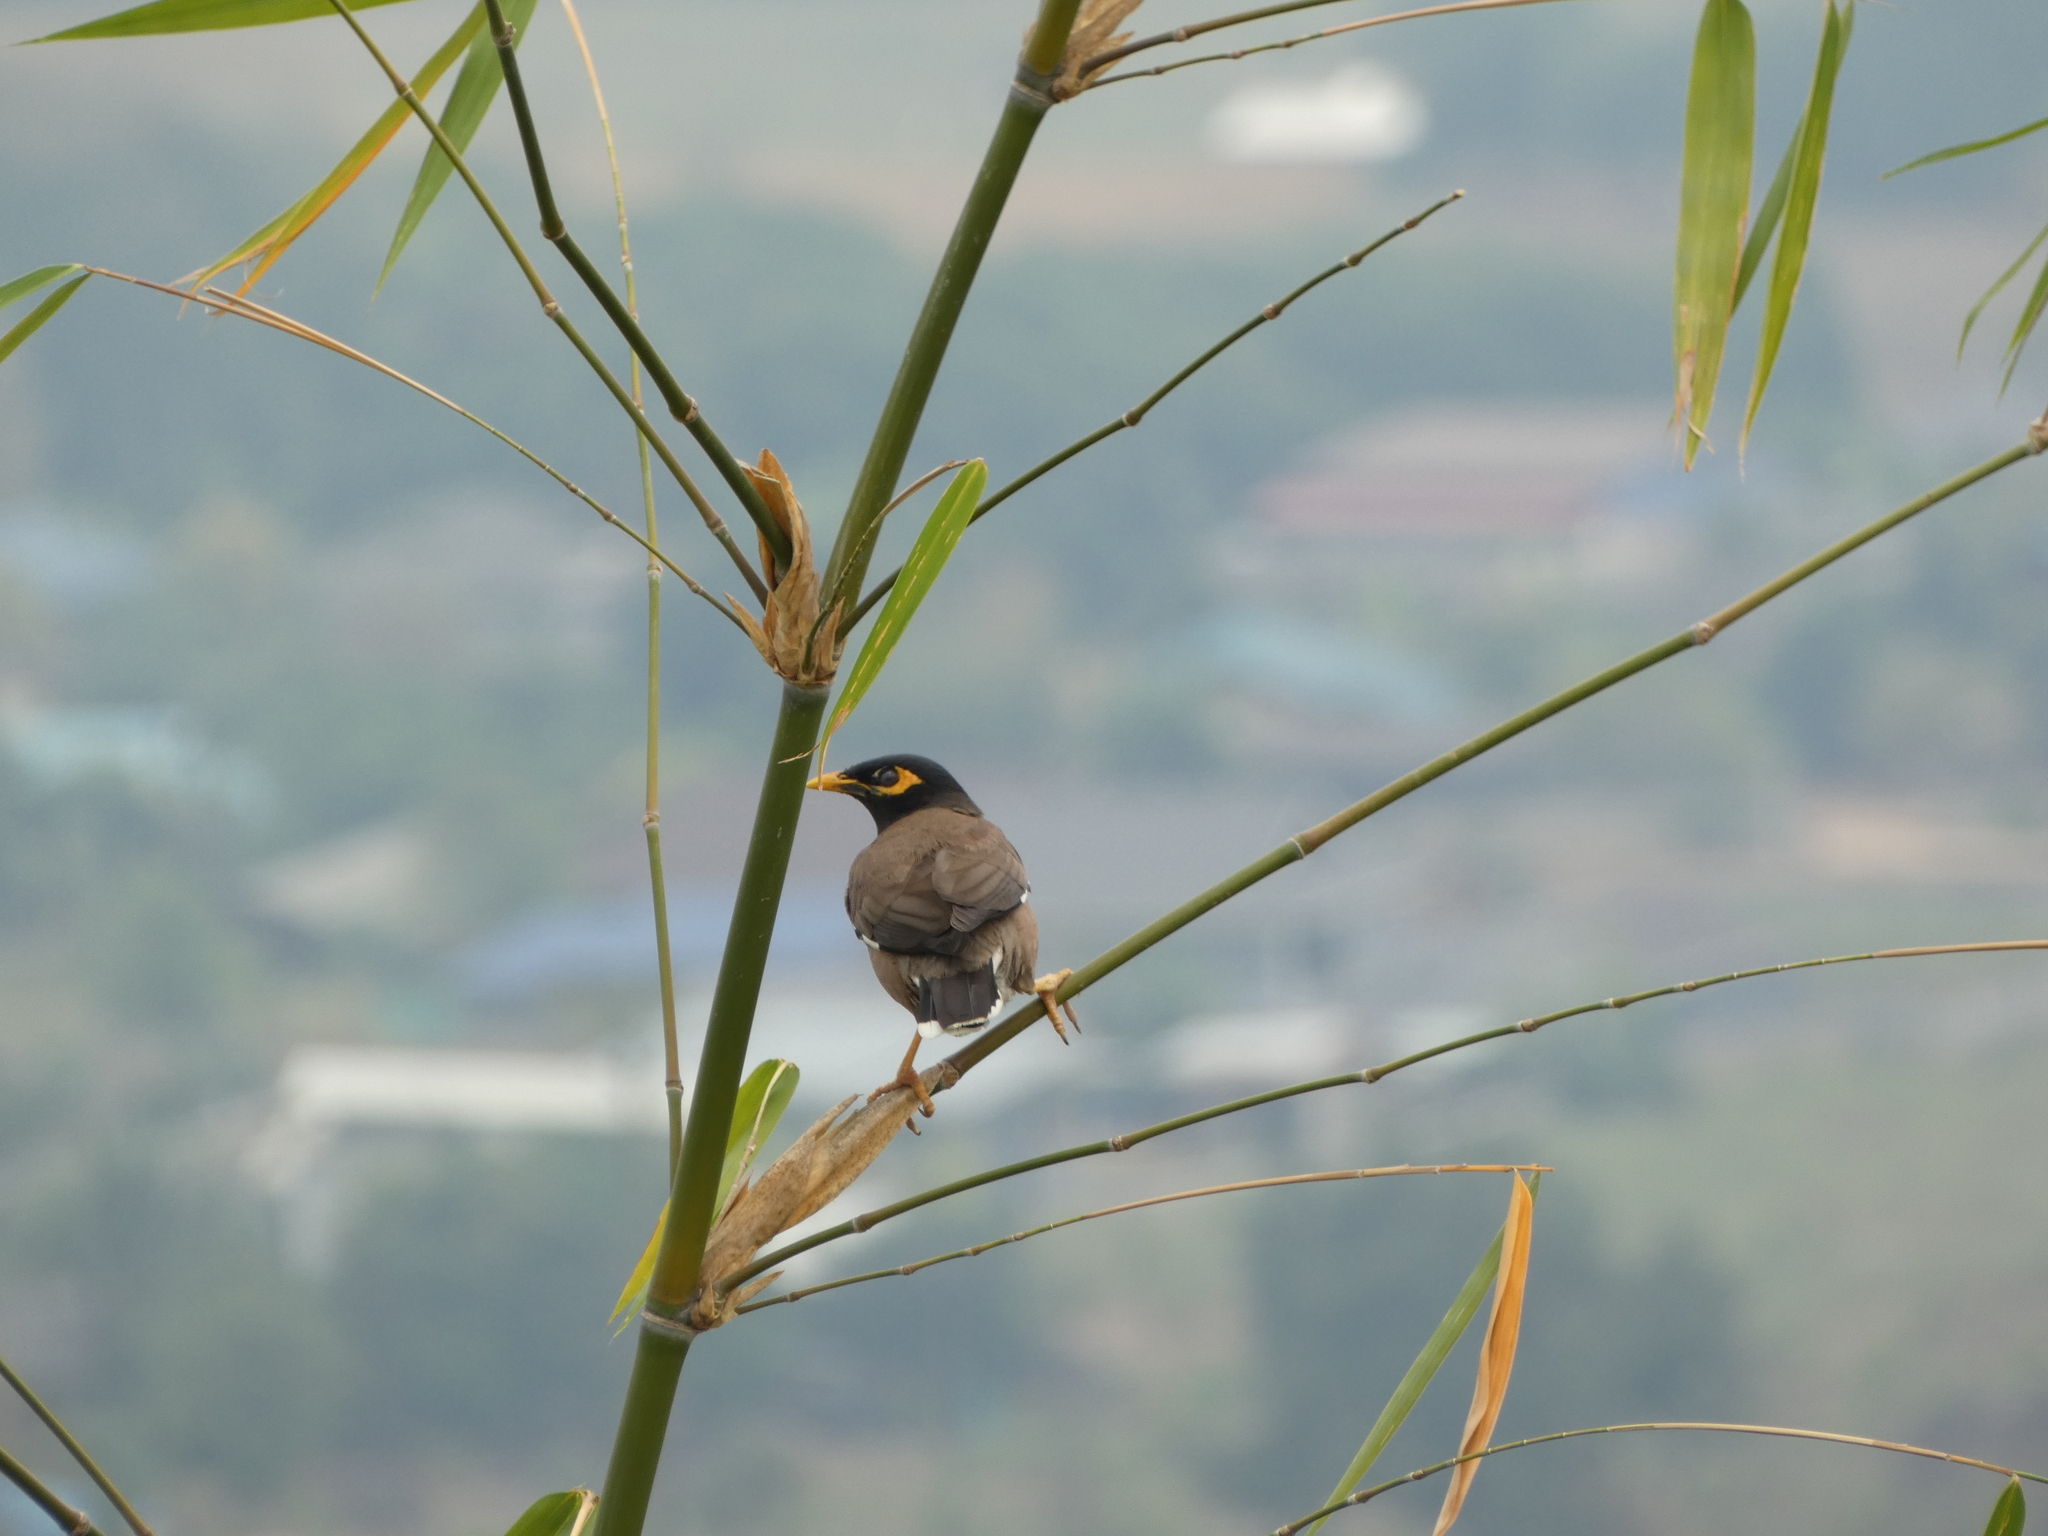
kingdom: Animalia
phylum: Chordata
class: Aves
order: Passeriformes
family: Sturnidae
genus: Acridotheres
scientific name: Acridotheres tristis
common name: Common myna
